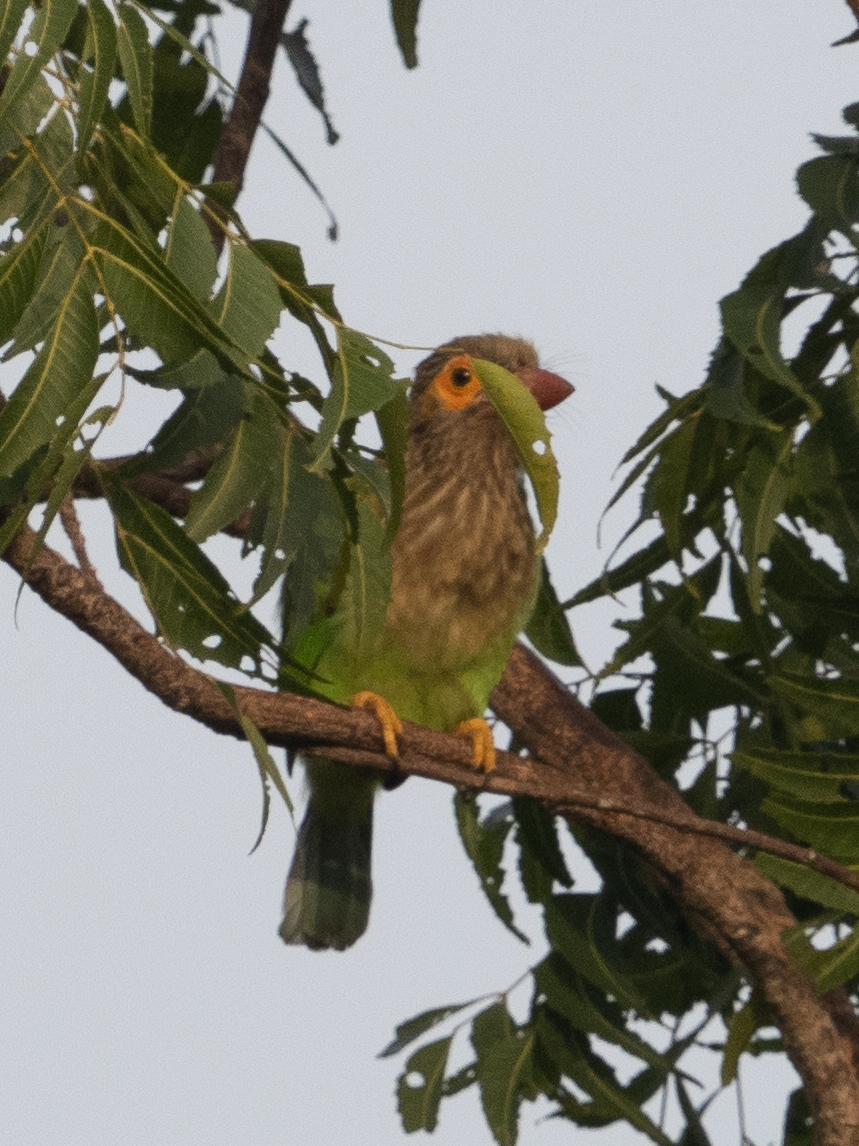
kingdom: Animalia
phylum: Chordata
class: Aves
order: Piciformes
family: Megalaimidae
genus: Psilopogon
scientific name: Psilopogon zeylanicus
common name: Brown-headed barbet
